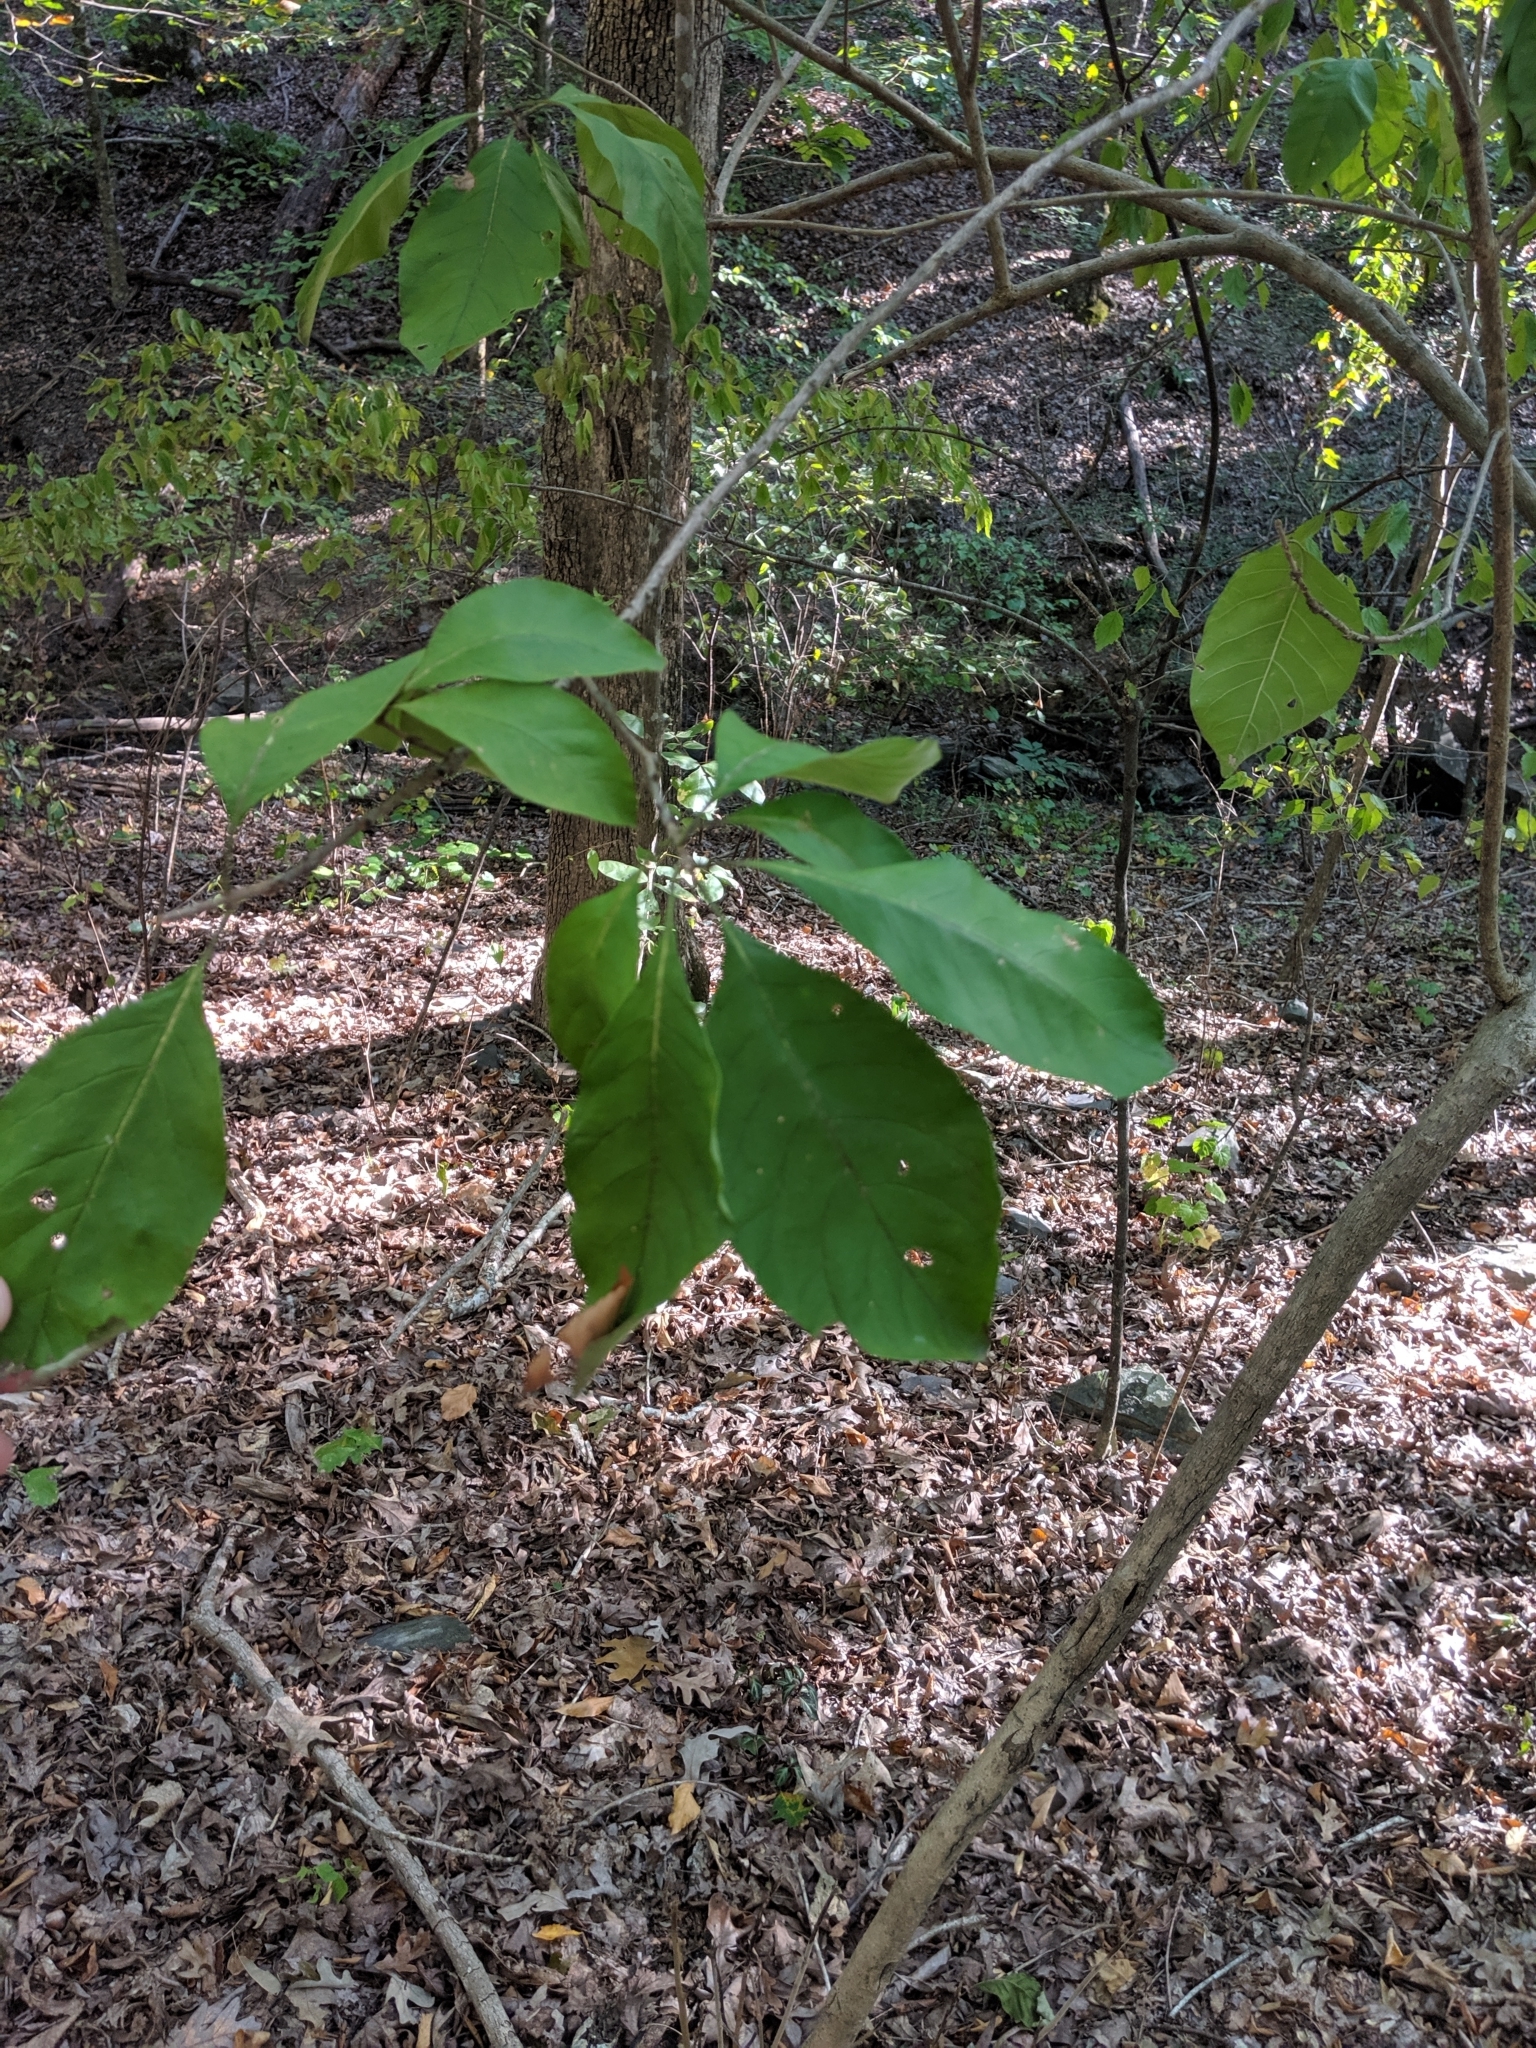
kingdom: Plantae
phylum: Tracheophyta
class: Magnoliopsida
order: Lamiales
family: Oleaceae
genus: Chionanthus
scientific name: Chionanthus virginicus
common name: American fringetree
